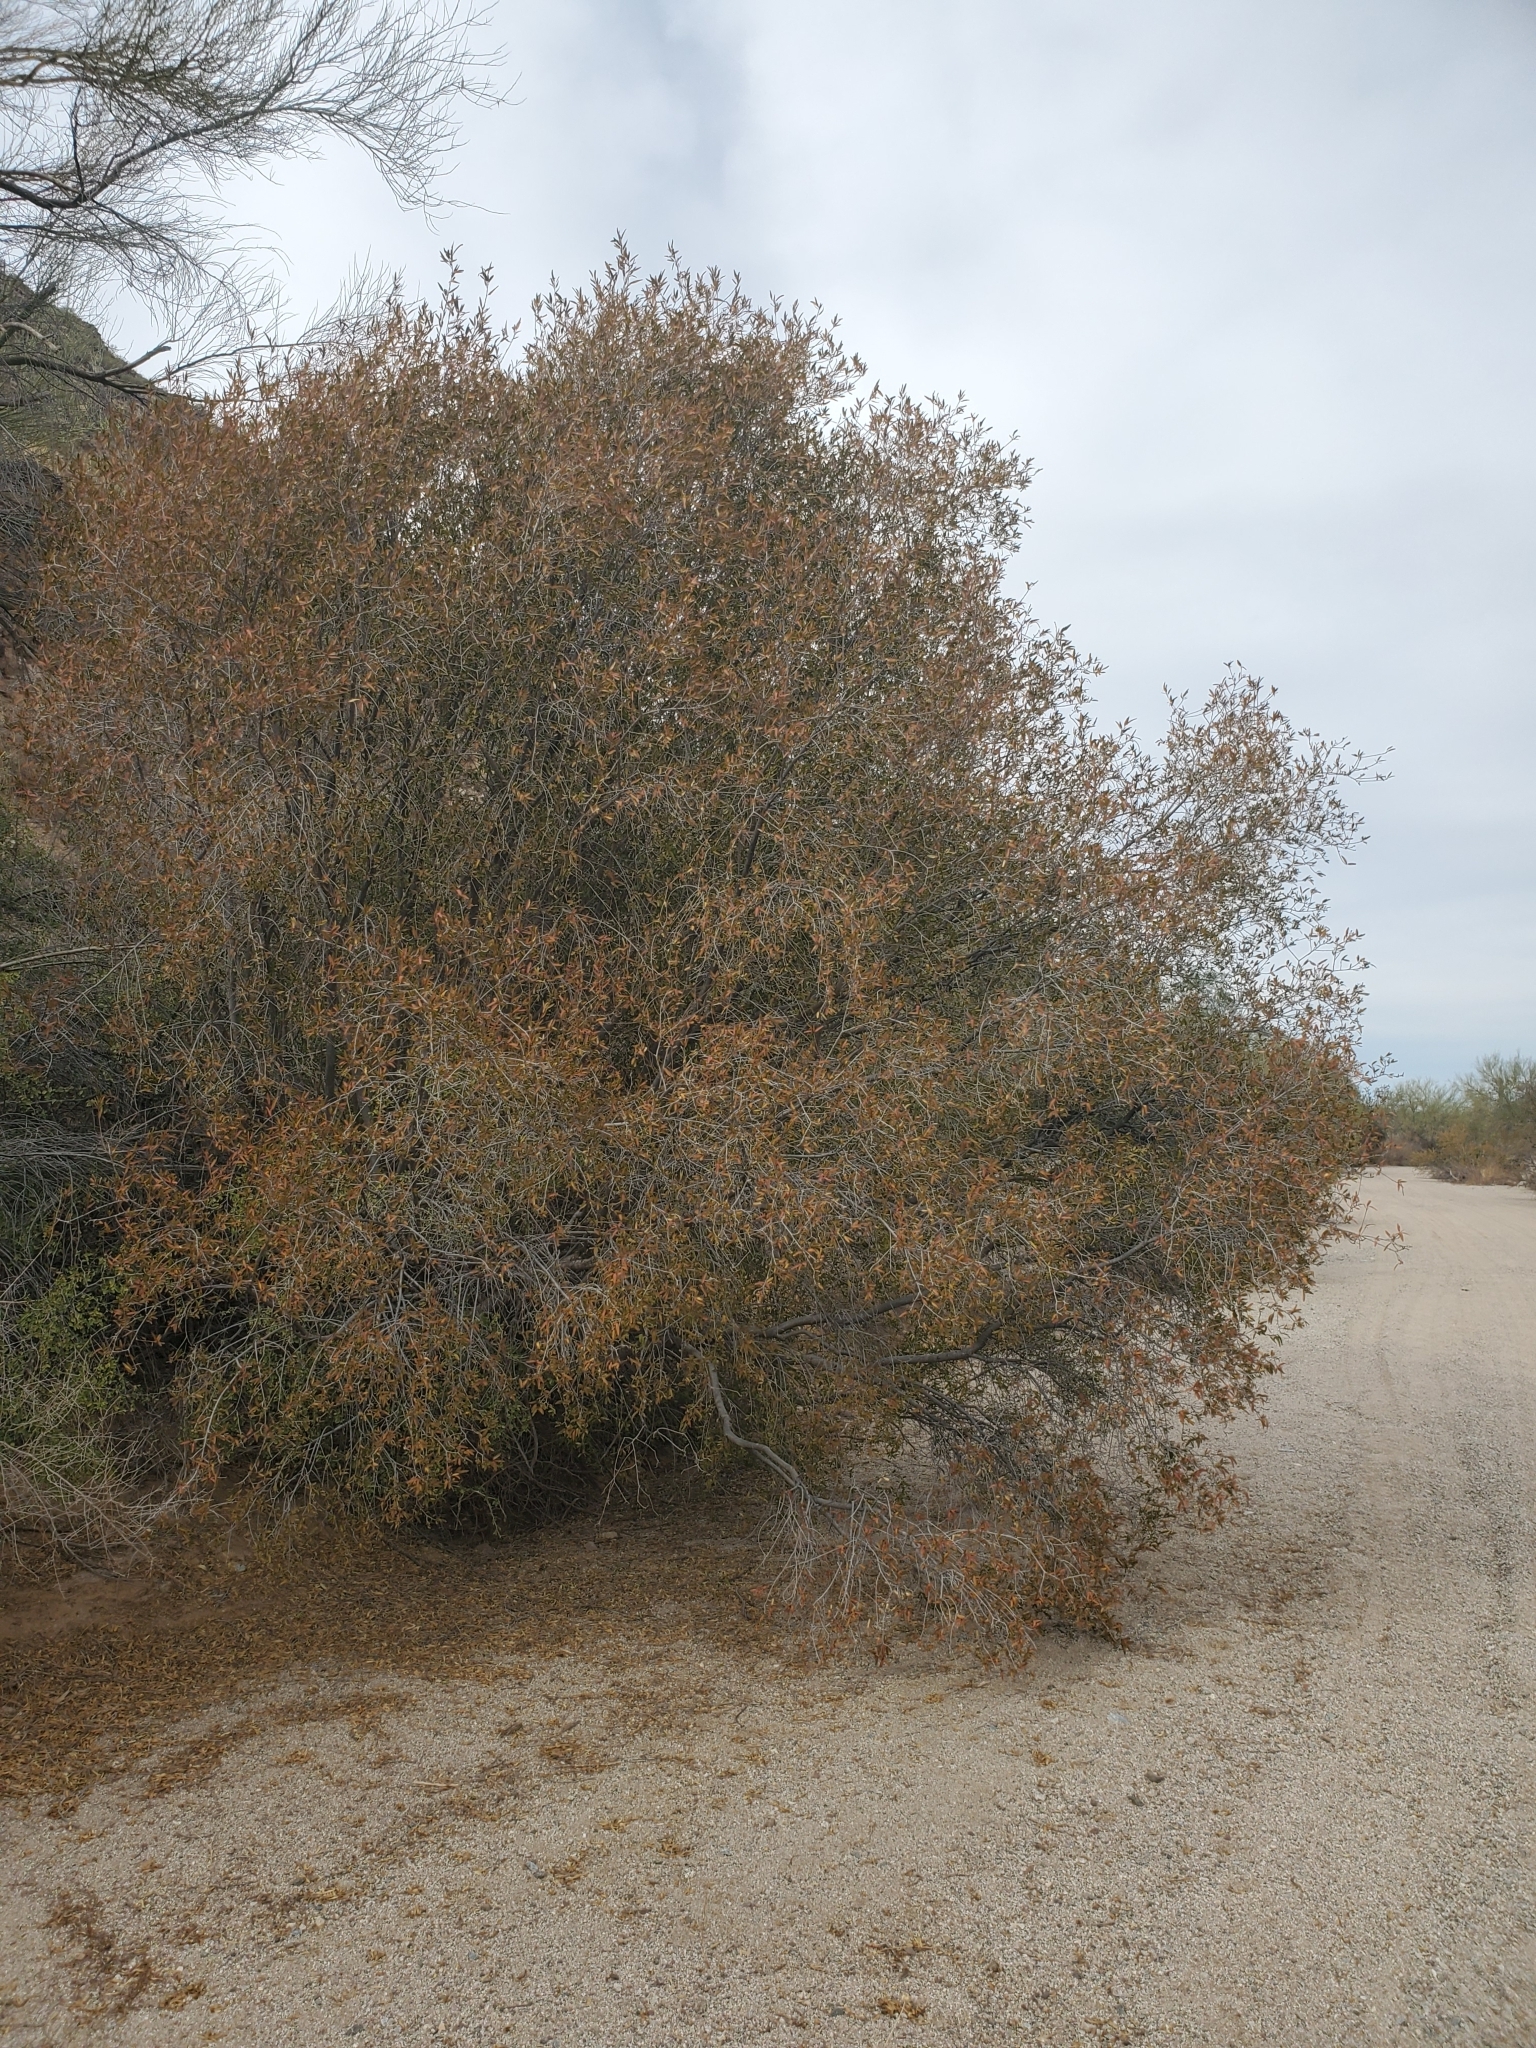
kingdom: Plantae
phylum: Tracheophyta
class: Magnoliopsida
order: Malpighiales
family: Euphorbiaceae
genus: Pleradenophora
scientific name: Pleradenophora bilocularis
